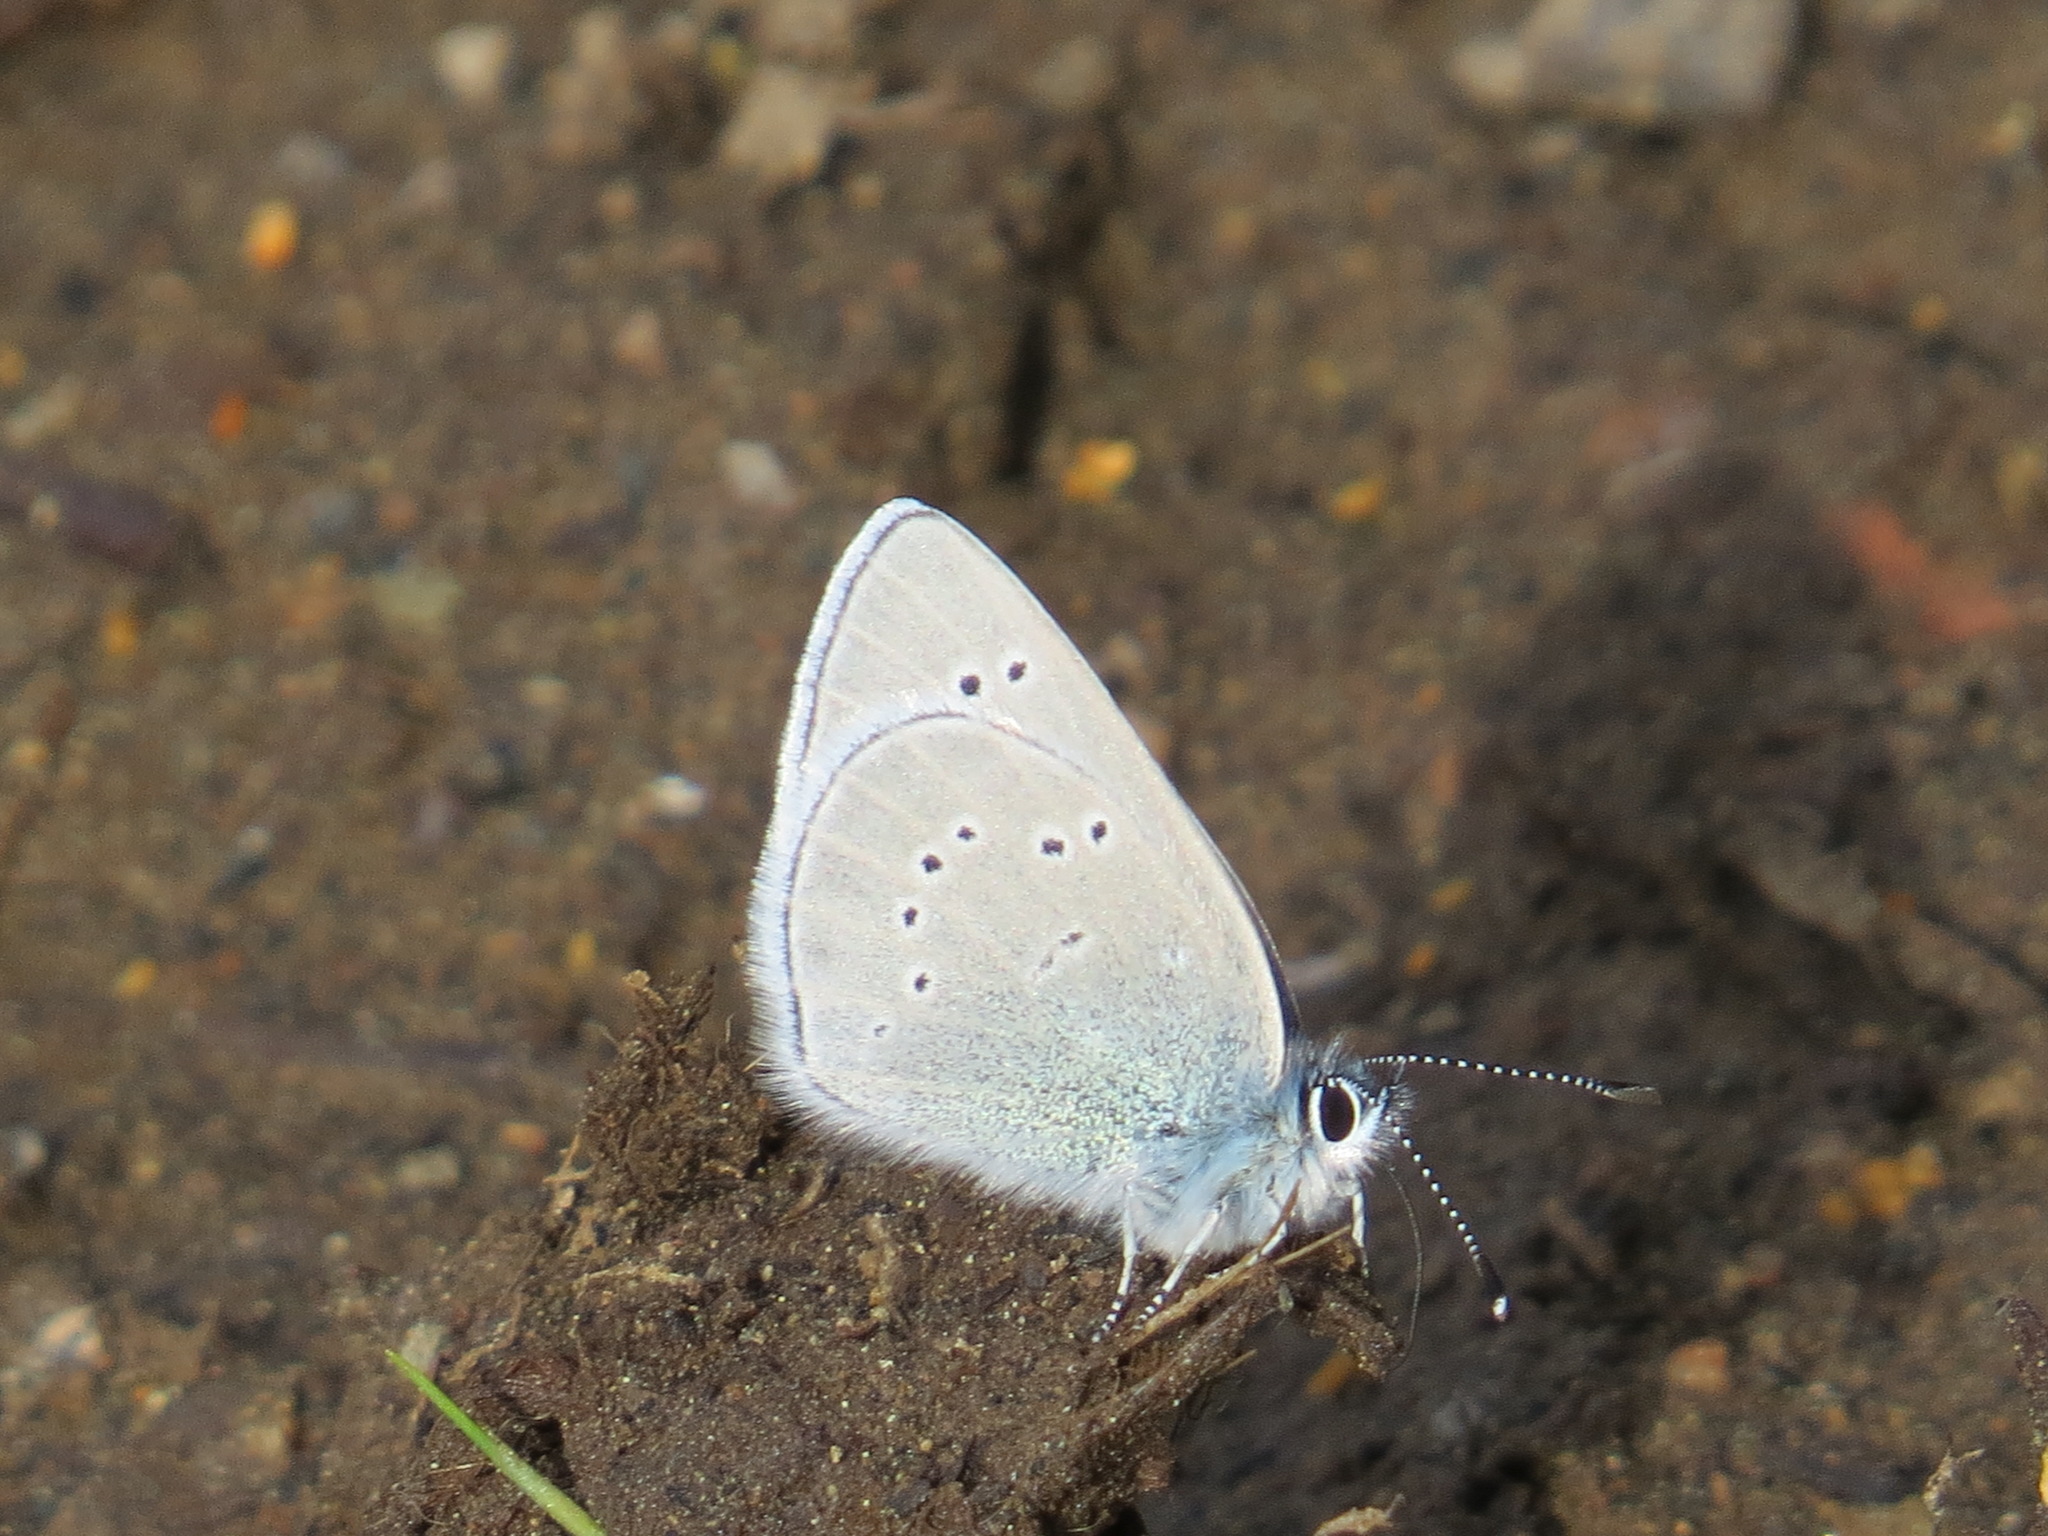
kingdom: Animalia
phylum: Arthropoda
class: Insecta
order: Lepidoptera
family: Lycaenidae
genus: Glaucopsyche
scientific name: Glaucopsyche lygdamus
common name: Silvery blue
